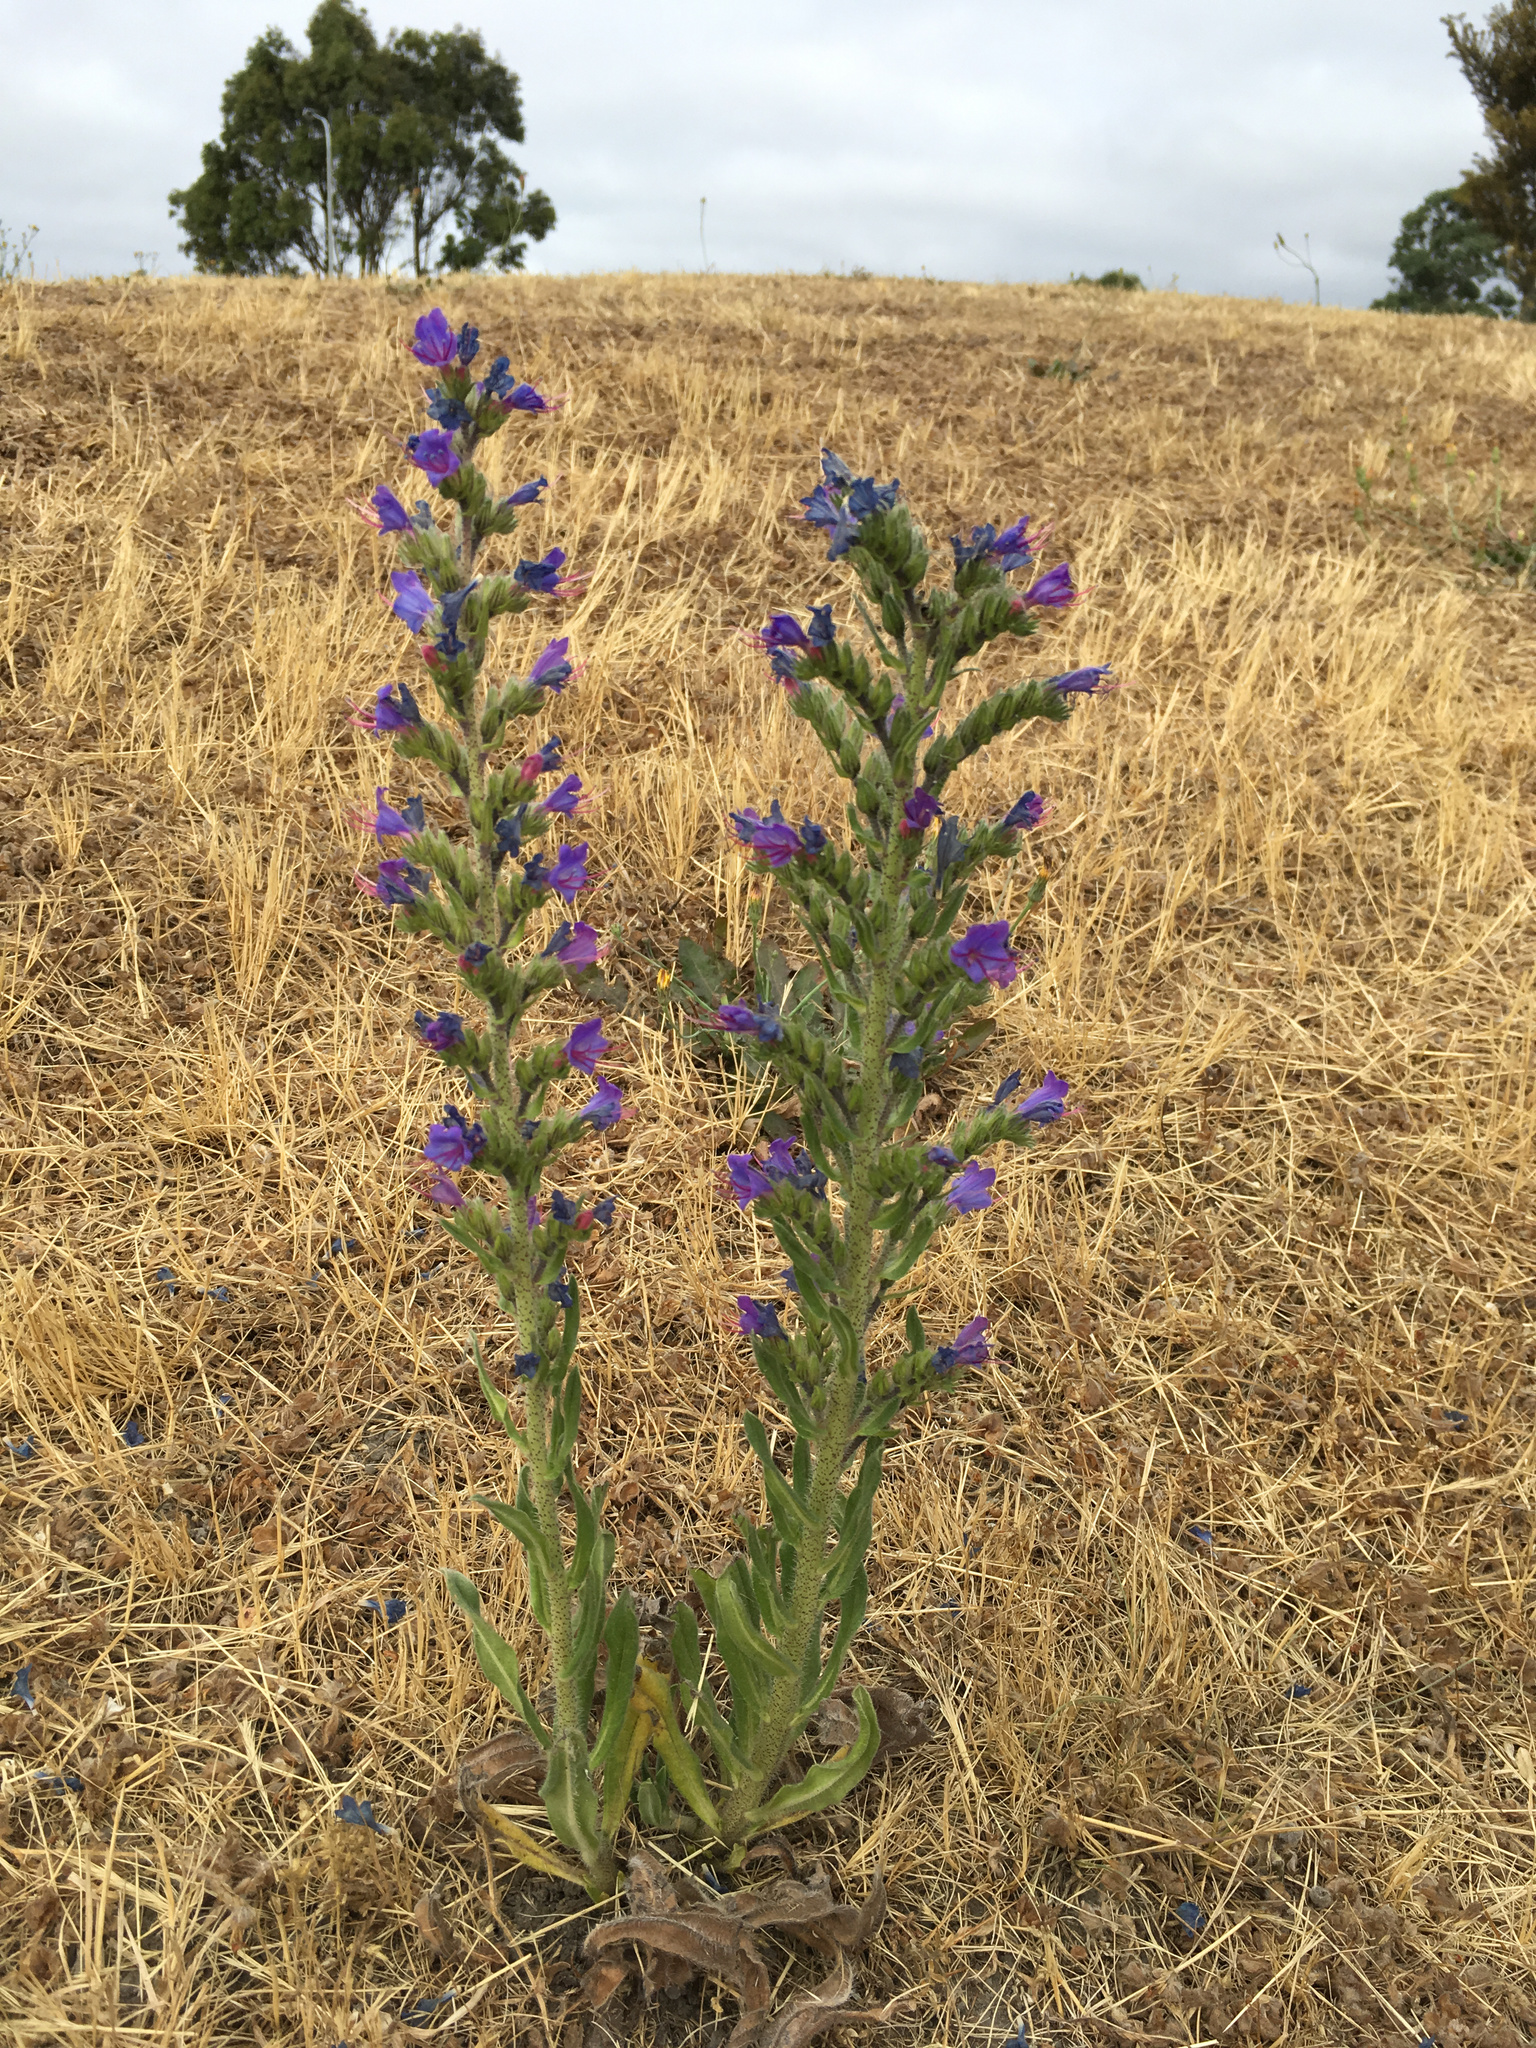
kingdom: Plantae
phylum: Tracheophyta
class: Magnoliopsida
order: Boraginales
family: Boraginaceae
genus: Echium
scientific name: Echium vulgare
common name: Common viper's bugloss
